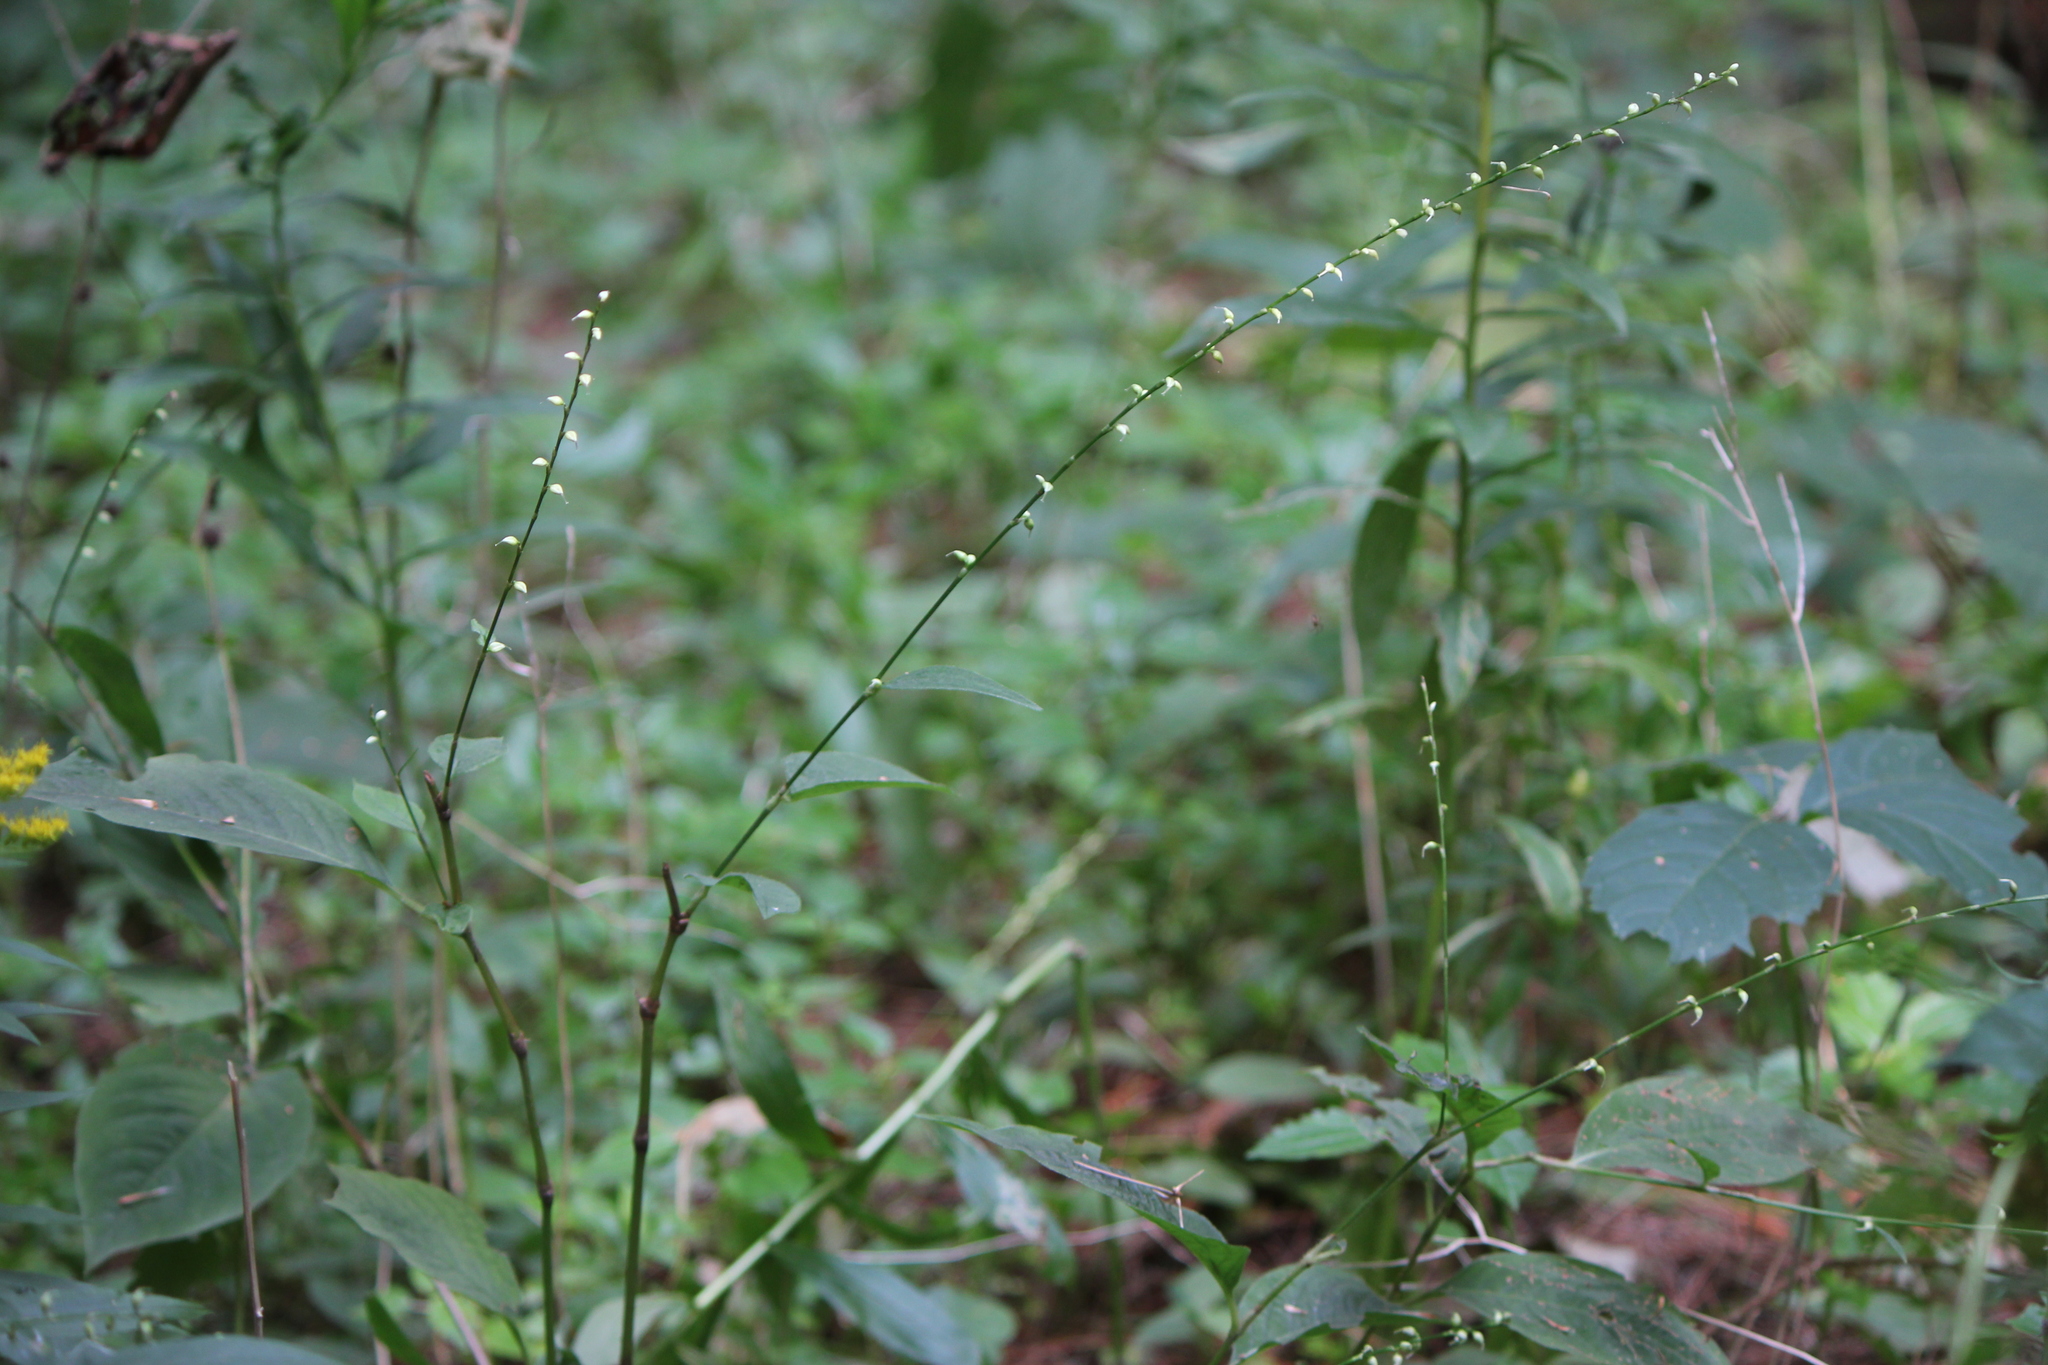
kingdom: Plantae
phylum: Tracheophyta
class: Magnoliopsida
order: Caryophyllales
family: Polygonaceae
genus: Persicaria
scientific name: Persicaria virginiana
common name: Jumpseed
